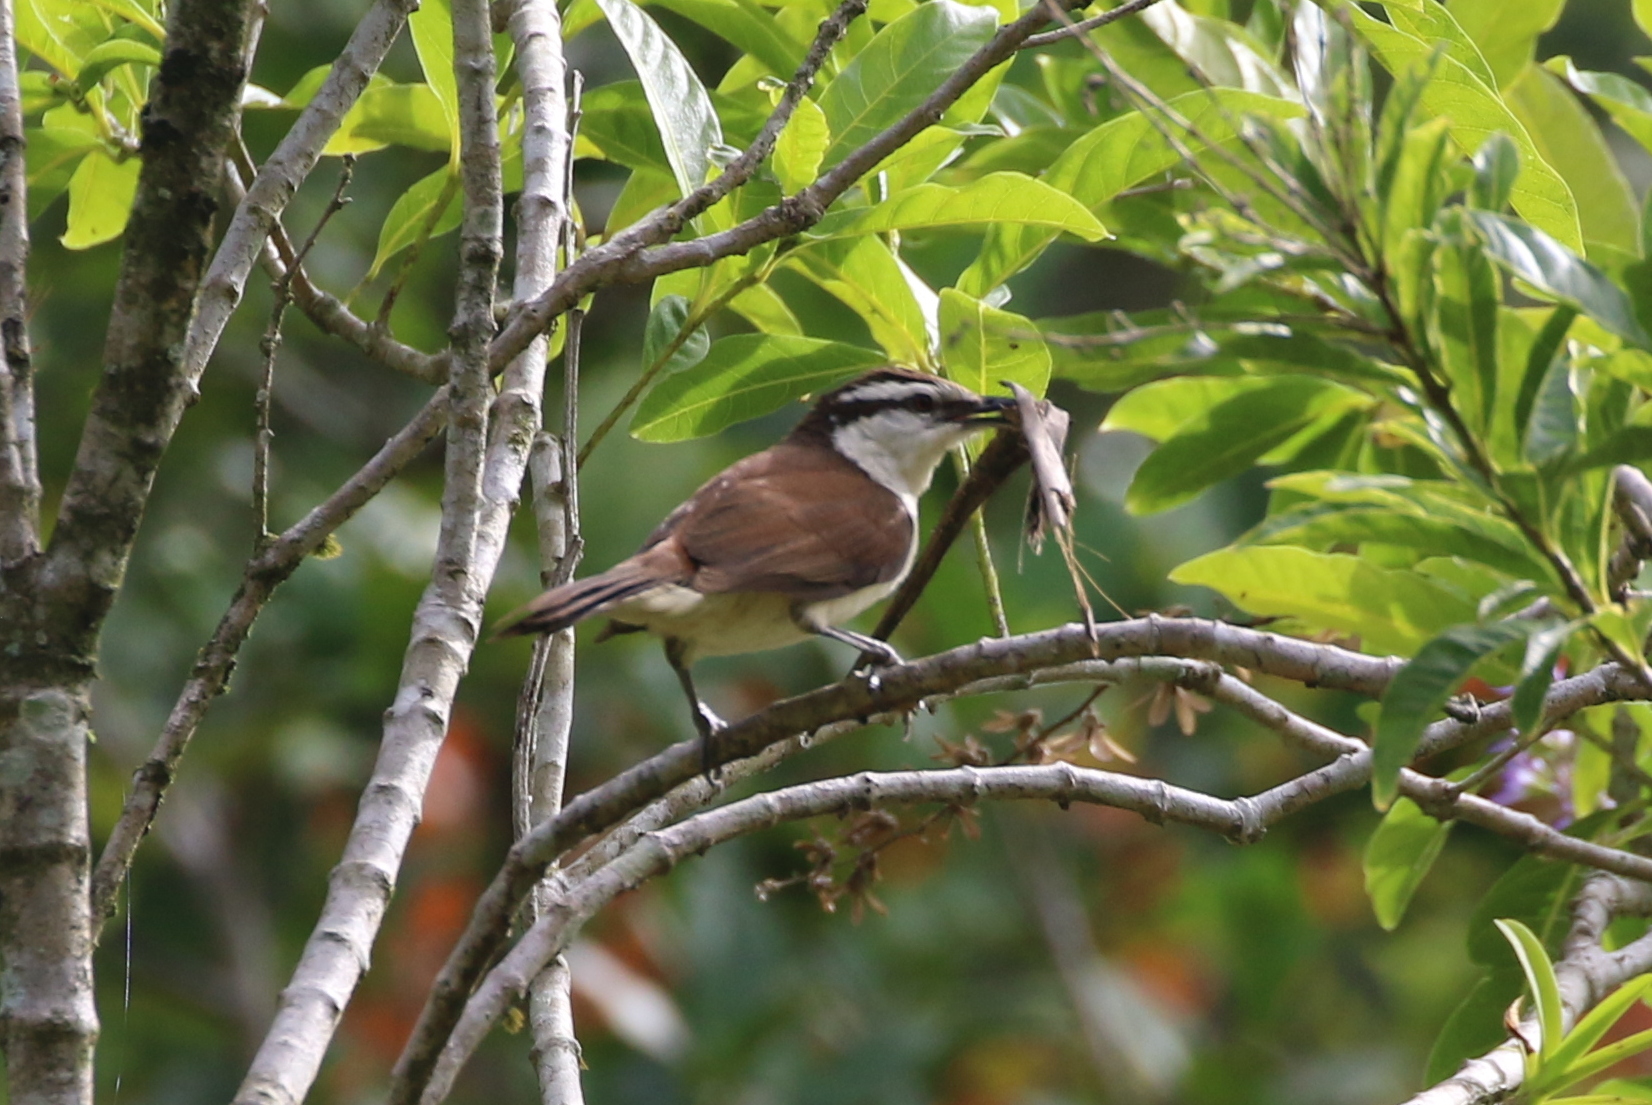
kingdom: Animalia
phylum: Chordata
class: Aves
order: Passeriformes
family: Troglodytidae
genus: Campylorhynchus
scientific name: Campylorhynchus griseus
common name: Bicolored wren
